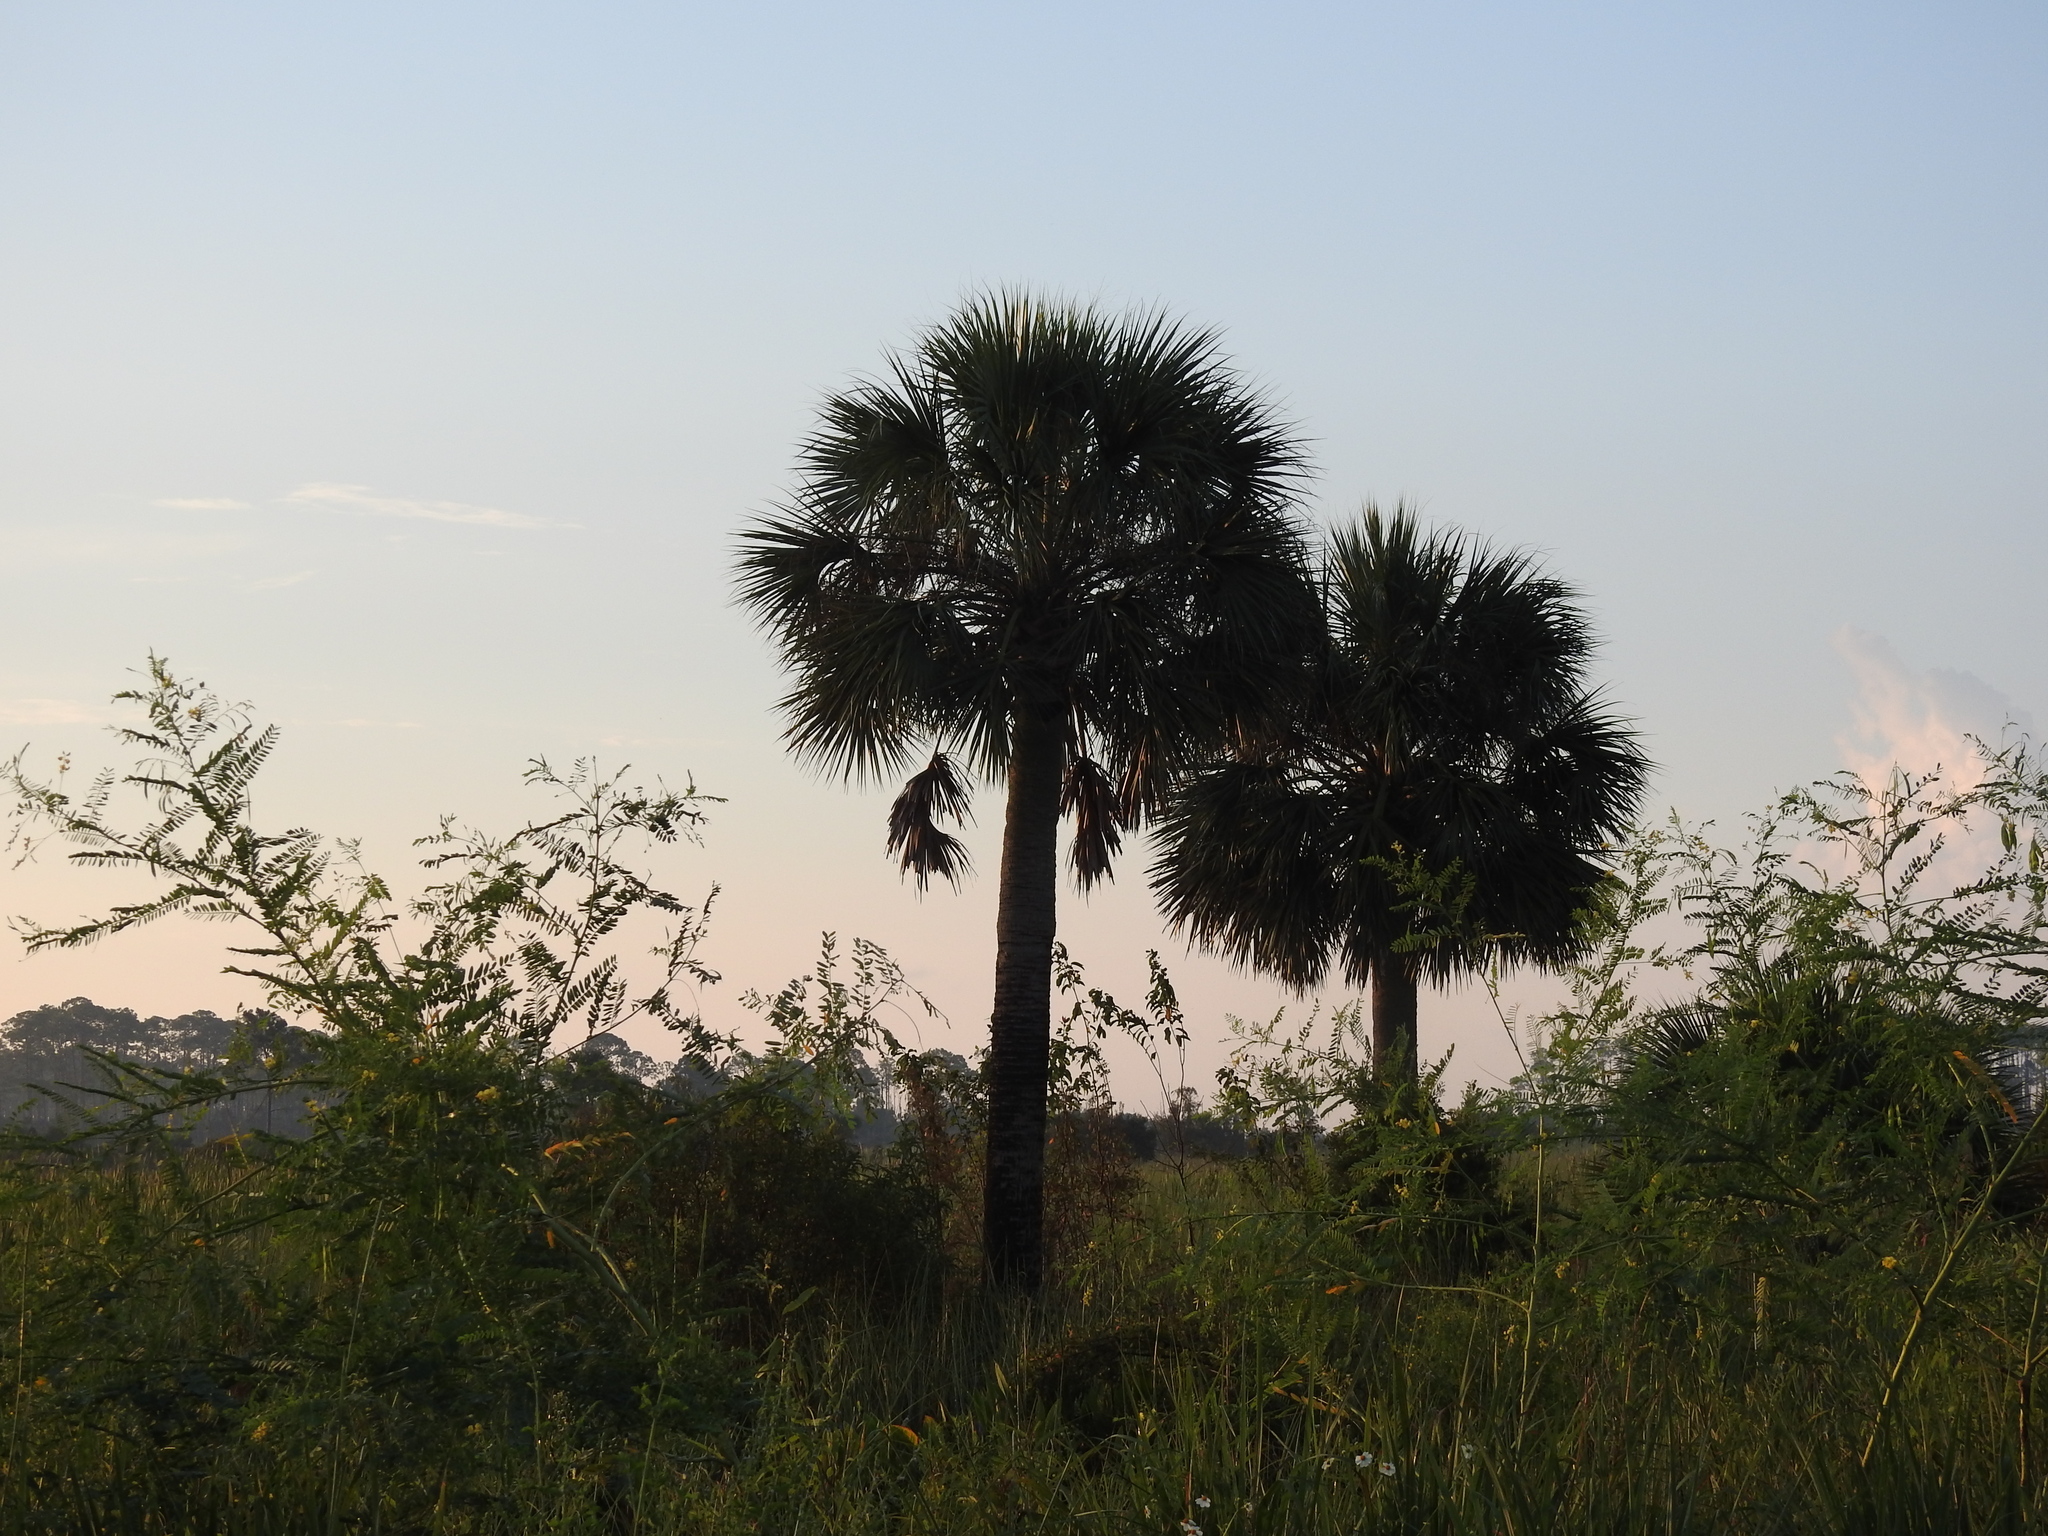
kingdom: Plantae
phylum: Tracheophyta
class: Liliopsida
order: Arecales
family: Arecaceae
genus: Sabal
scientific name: Sabal palmetto
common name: Blue palmetto
